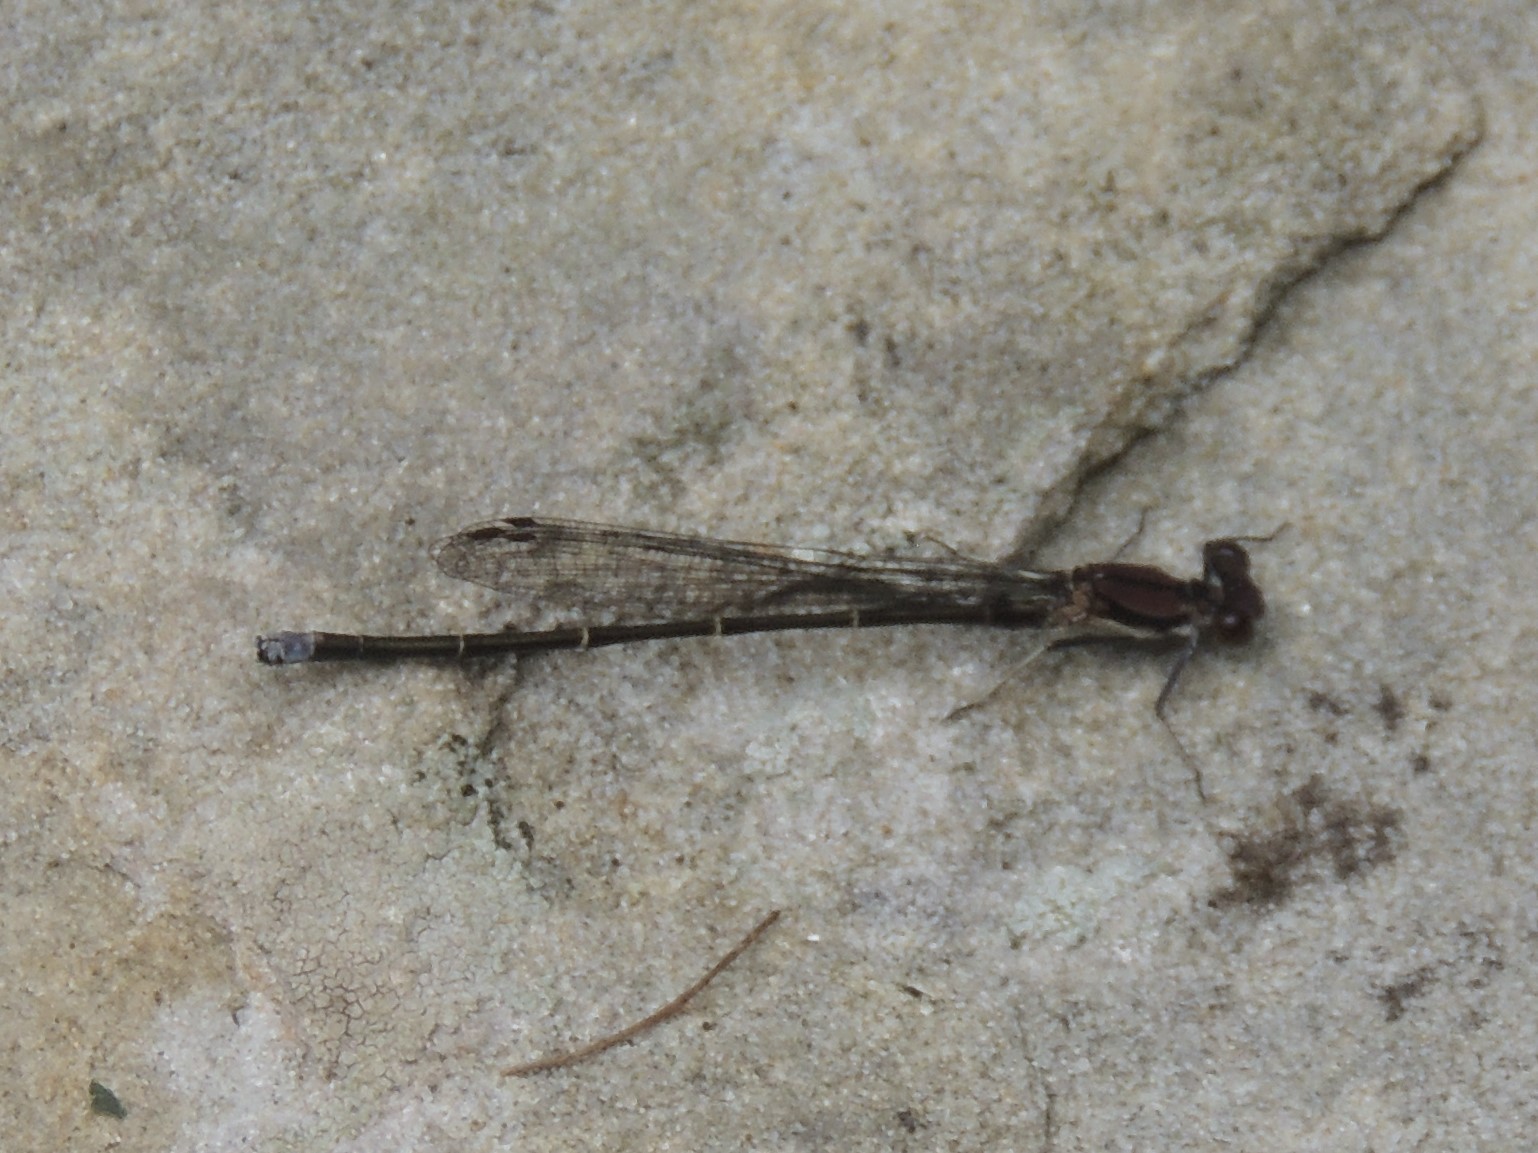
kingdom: Animalia
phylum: Arthropoda
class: Insecta
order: Odonata
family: Coenagrionidae
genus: Argia
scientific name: Argia tibialis
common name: Blue-tipped dancer
